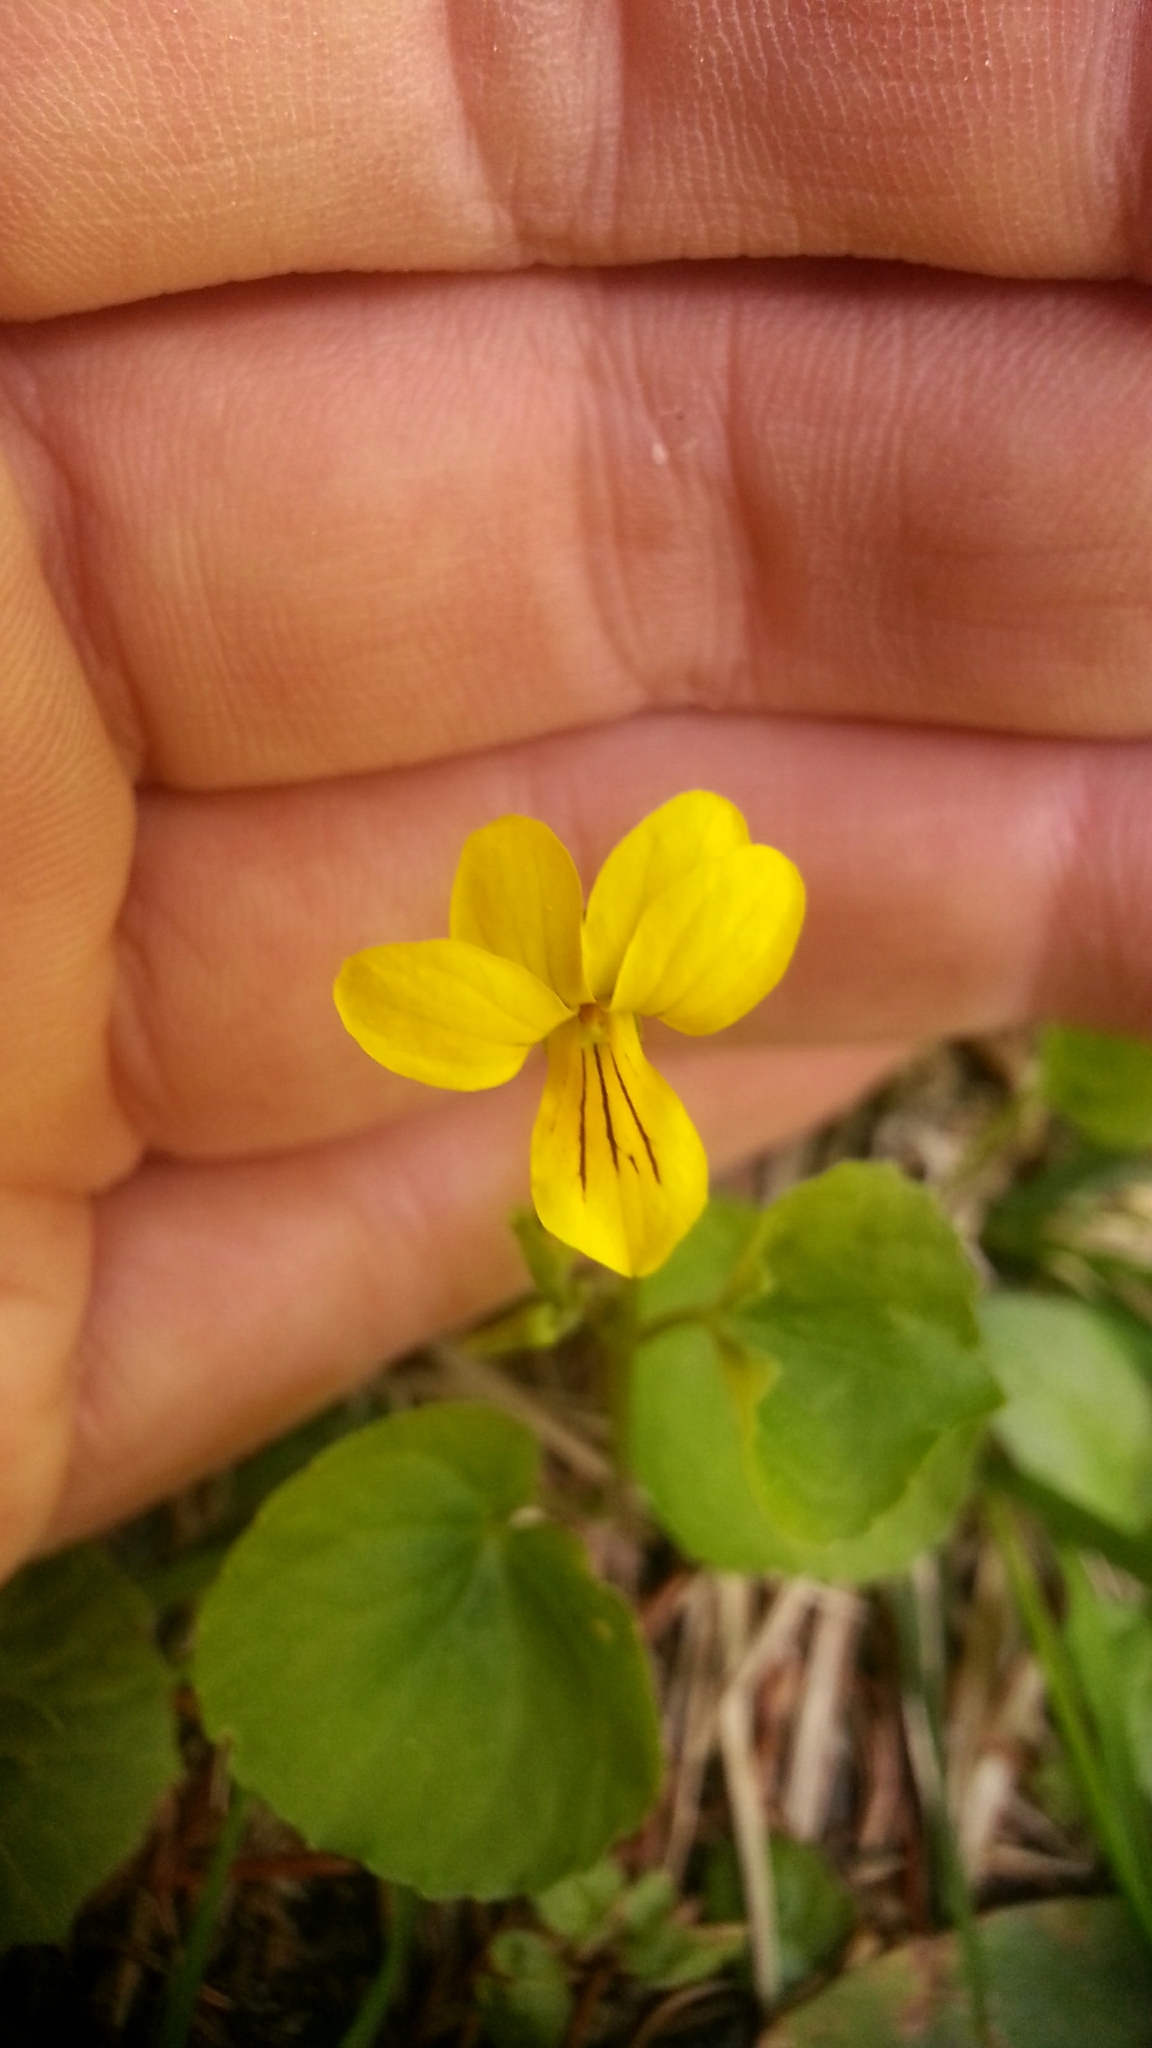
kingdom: Plantae
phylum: Tracheophyta
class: Magnoliopsida
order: Malpighiales
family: Violaceae
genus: Viola
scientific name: Viola biflora
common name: Alpine yellow violet
